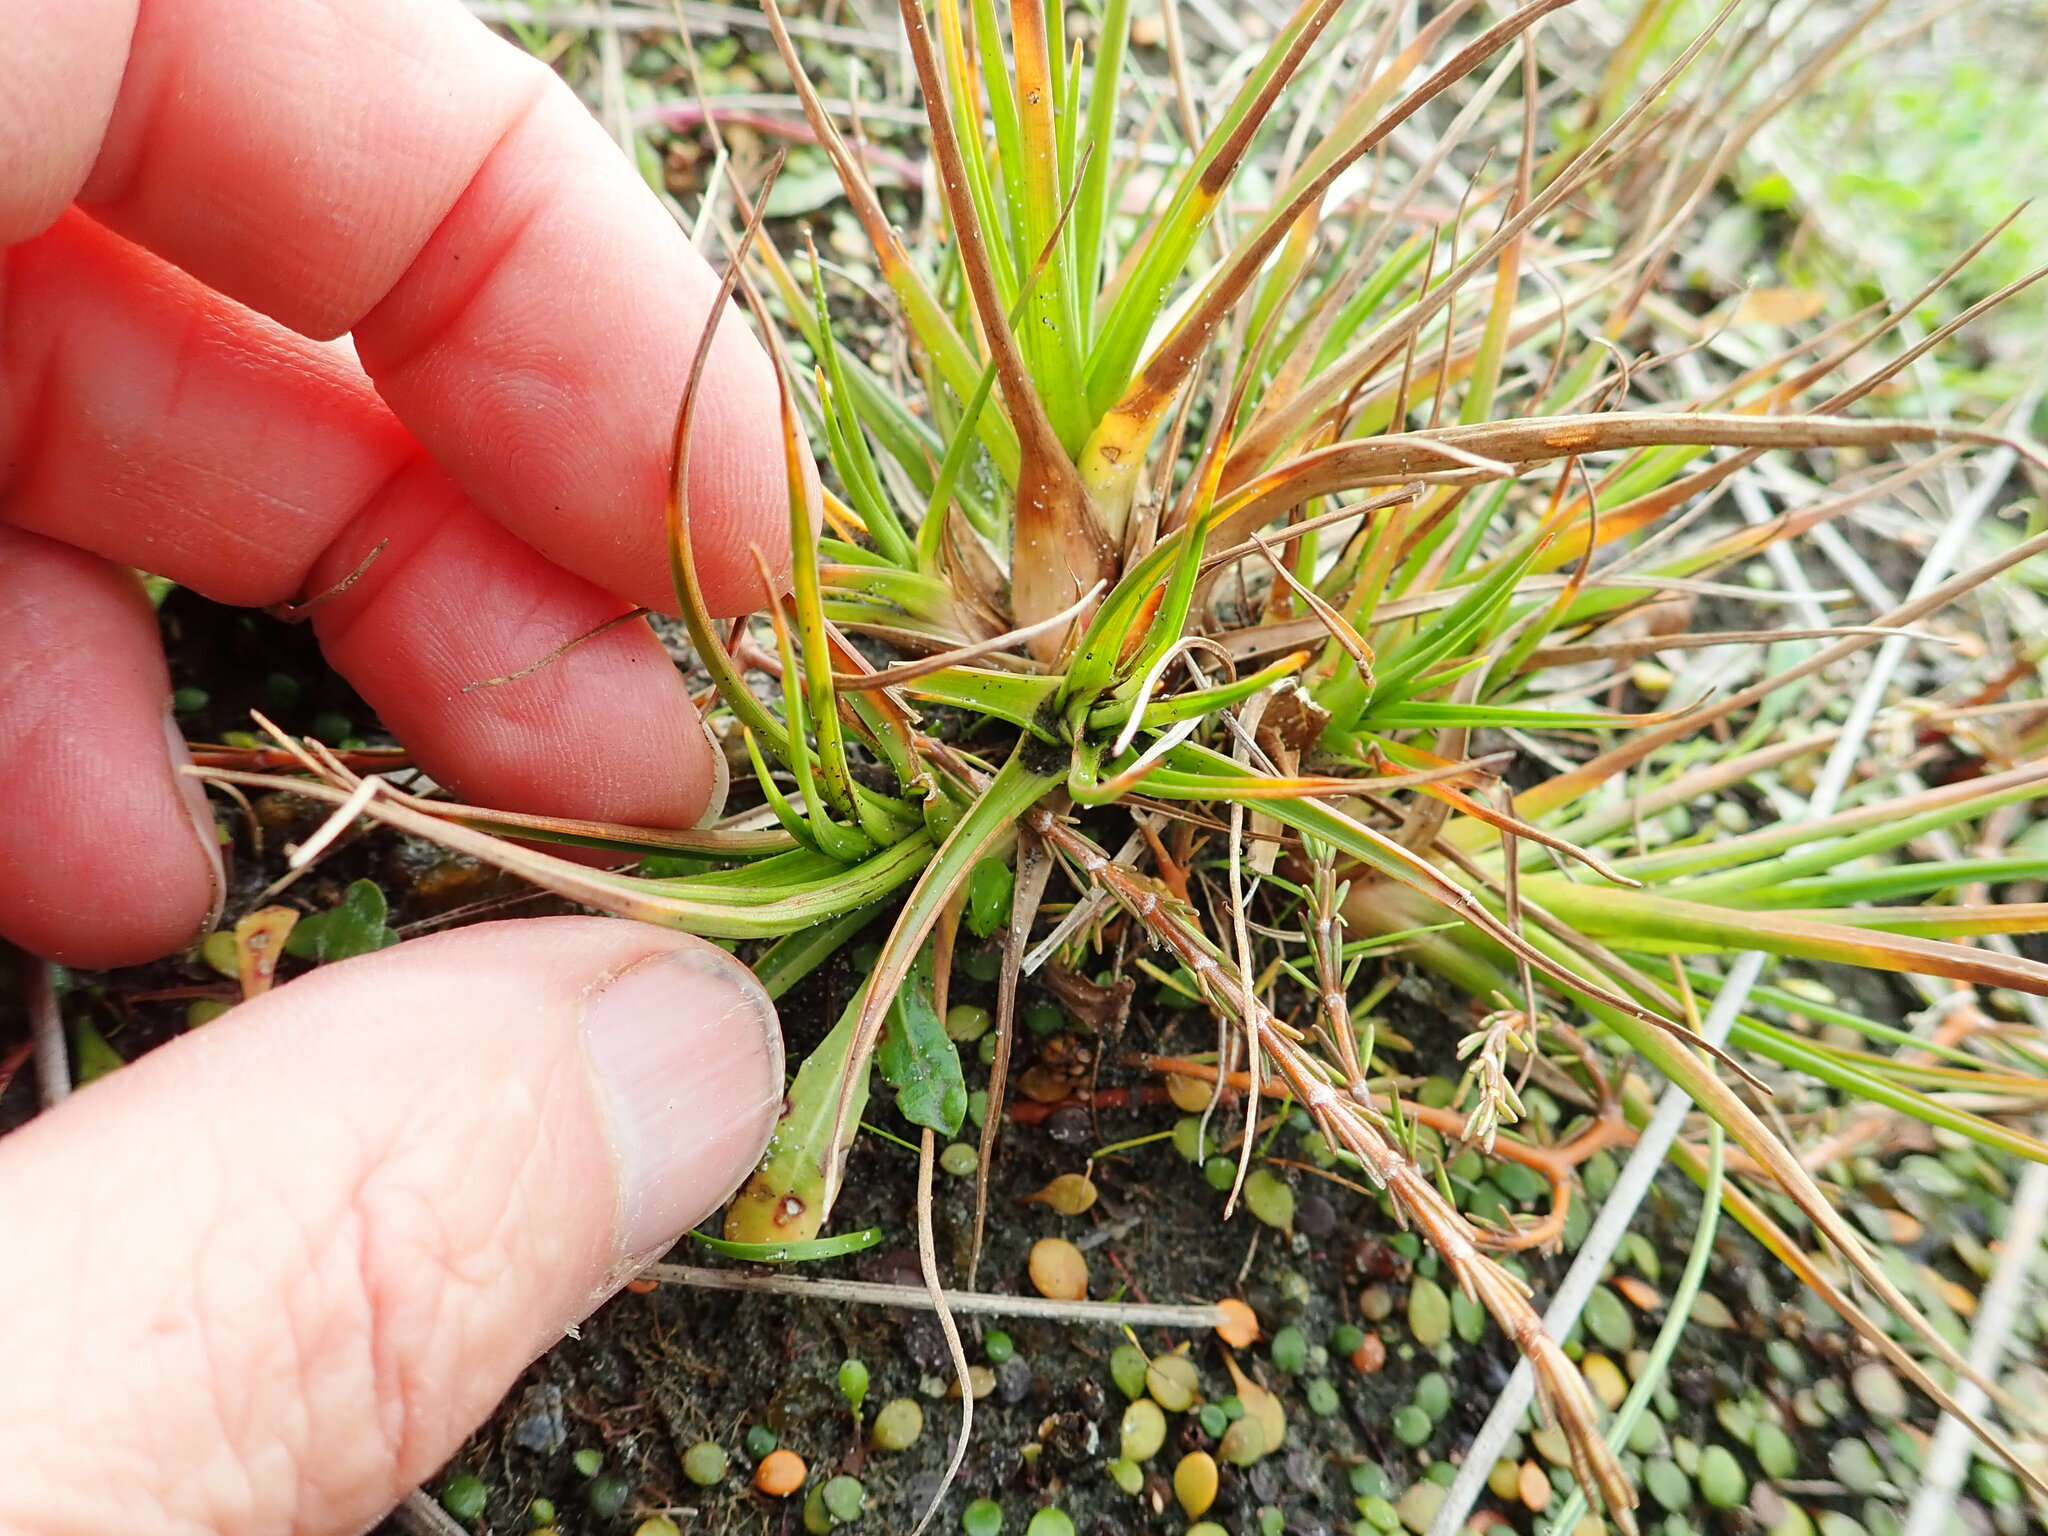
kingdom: Plantae
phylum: Tracheophyta
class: Liliopsida
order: Poales
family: Juncaceae
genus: Juncus
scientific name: Juncus caespiticius
